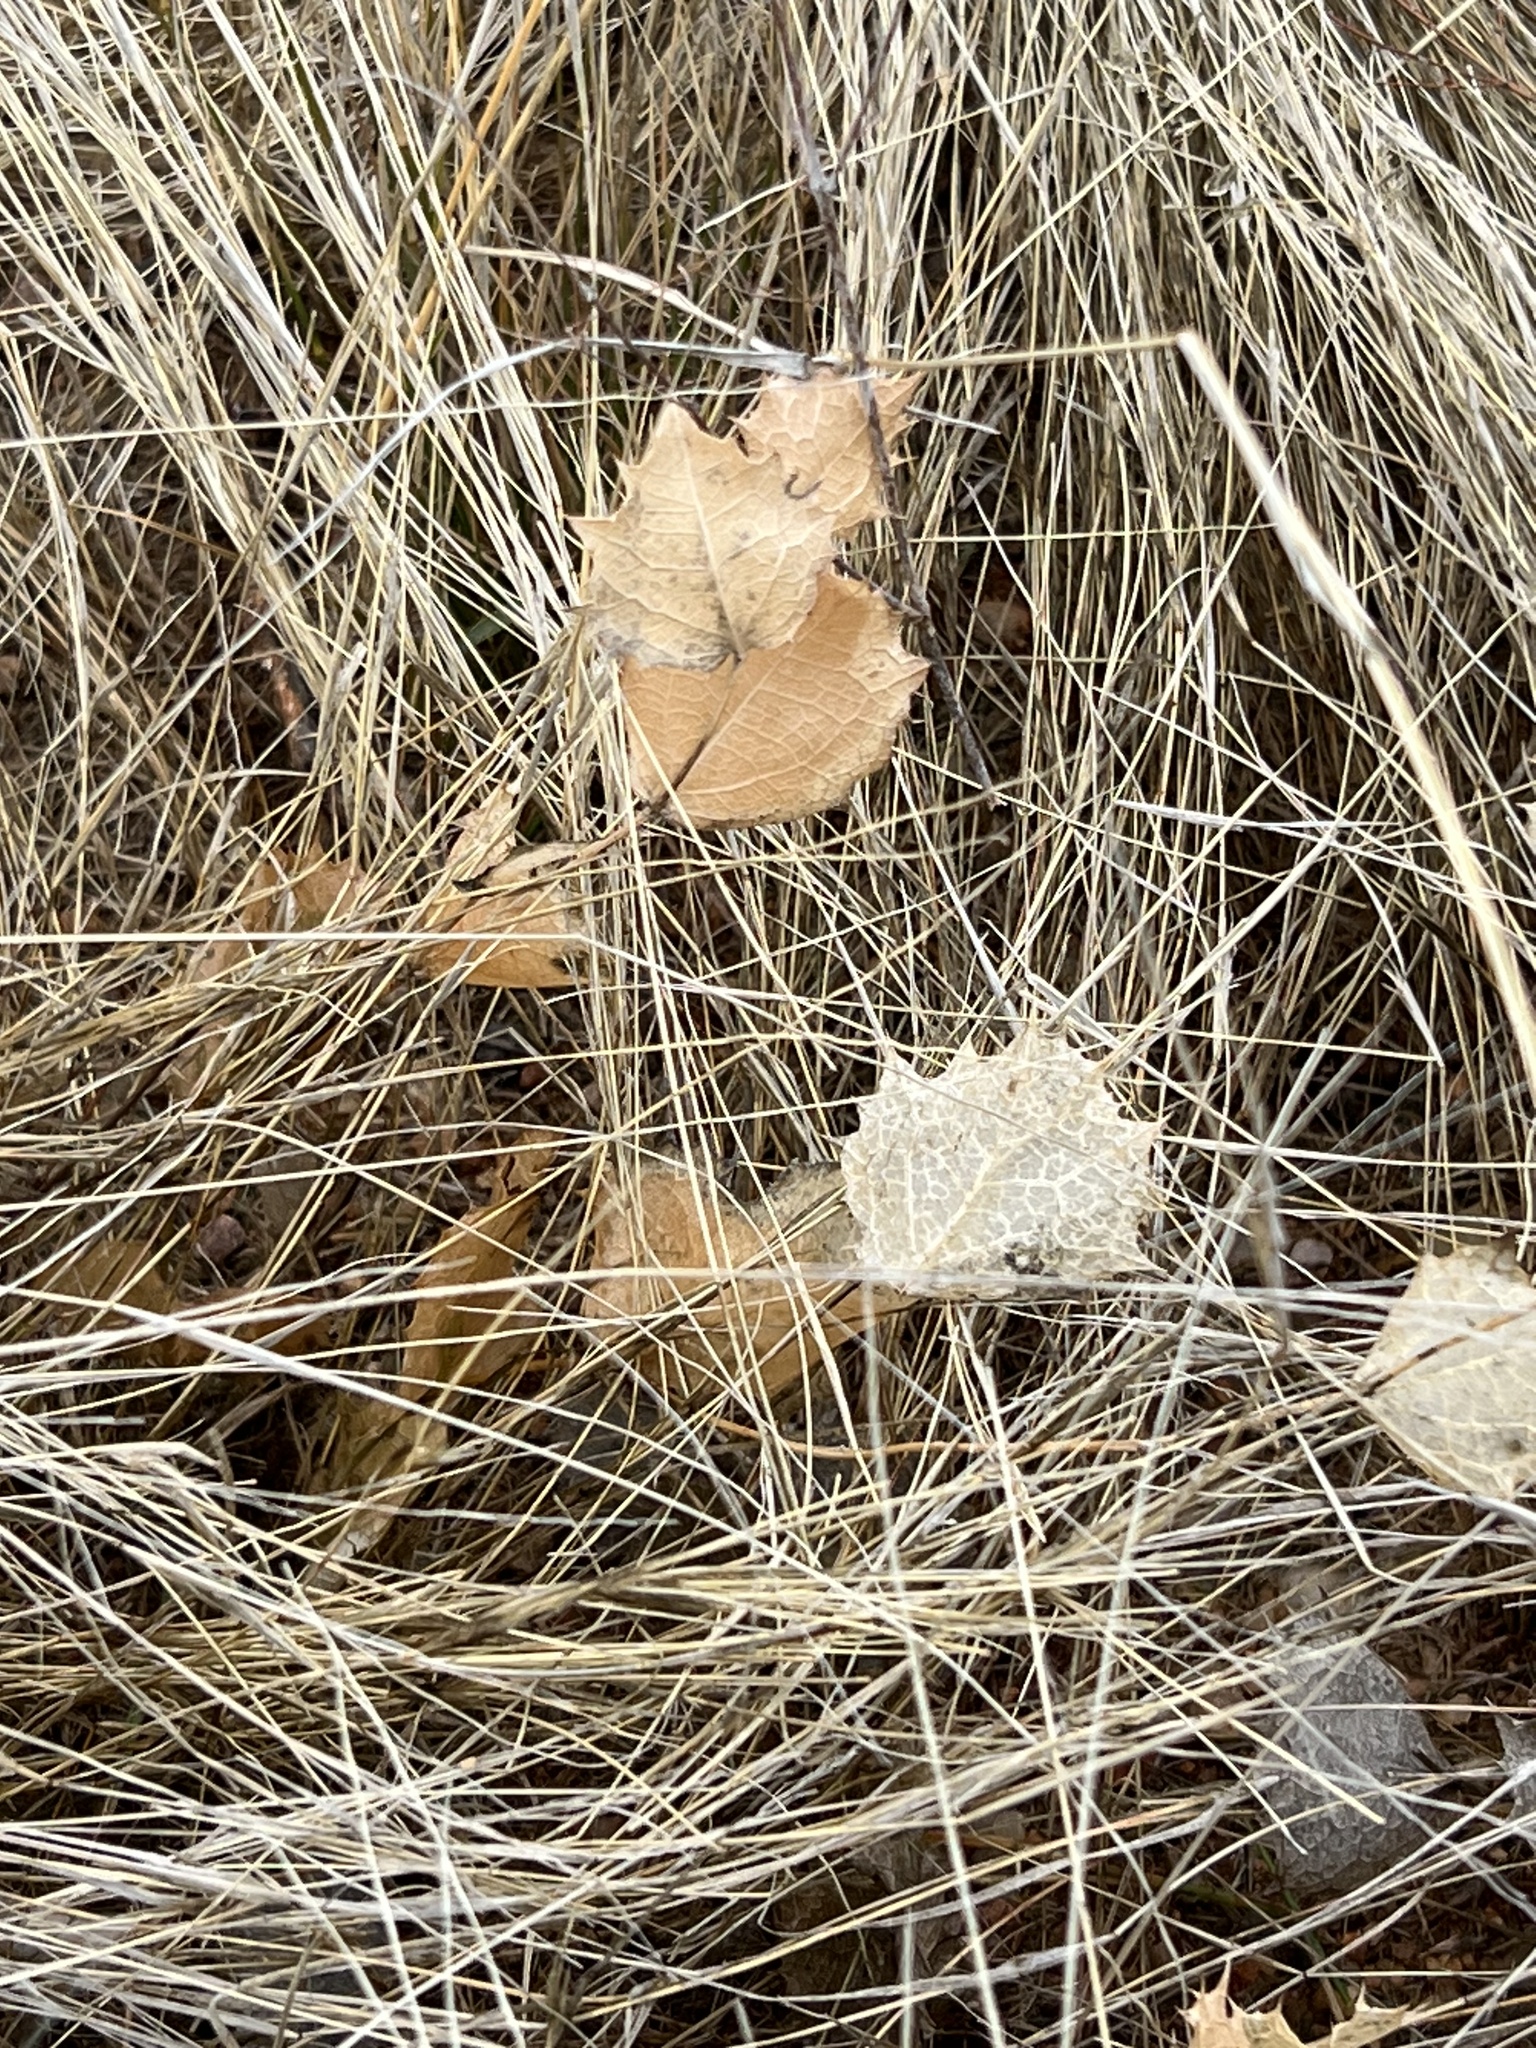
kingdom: Plantae
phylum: Tracheophyta
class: Magnoliopsida
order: Asterales
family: Asteraceae
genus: Acourtia
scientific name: Acourtia nana
